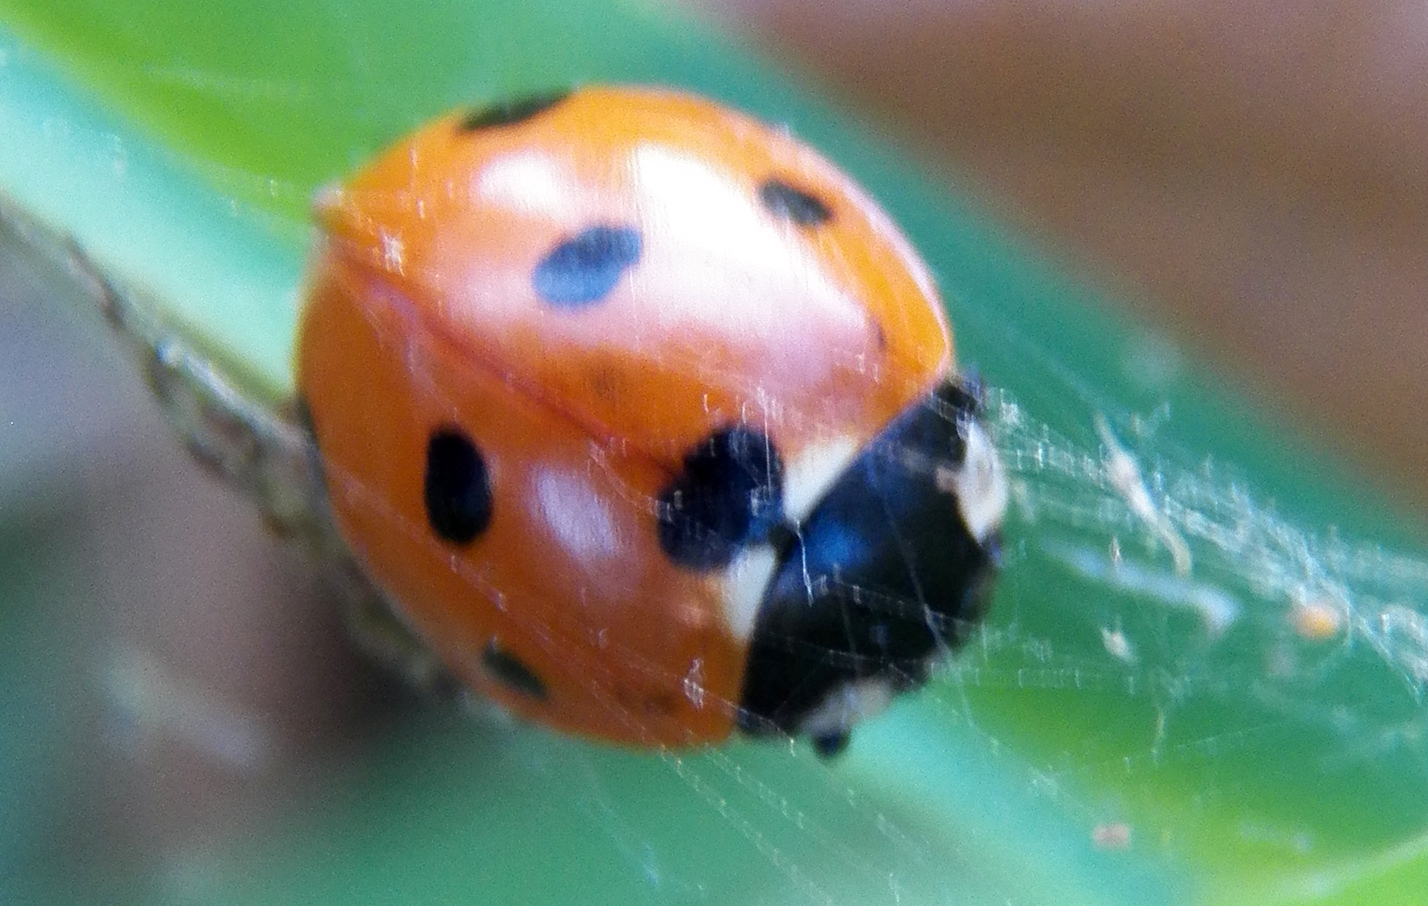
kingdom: Animalia
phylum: Arthropoda
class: Insecta
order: Coleoptera
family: Coccinellidae
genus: Coccinella
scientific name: Coccinella septempunctata
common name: Sevenspotted lady beetle
